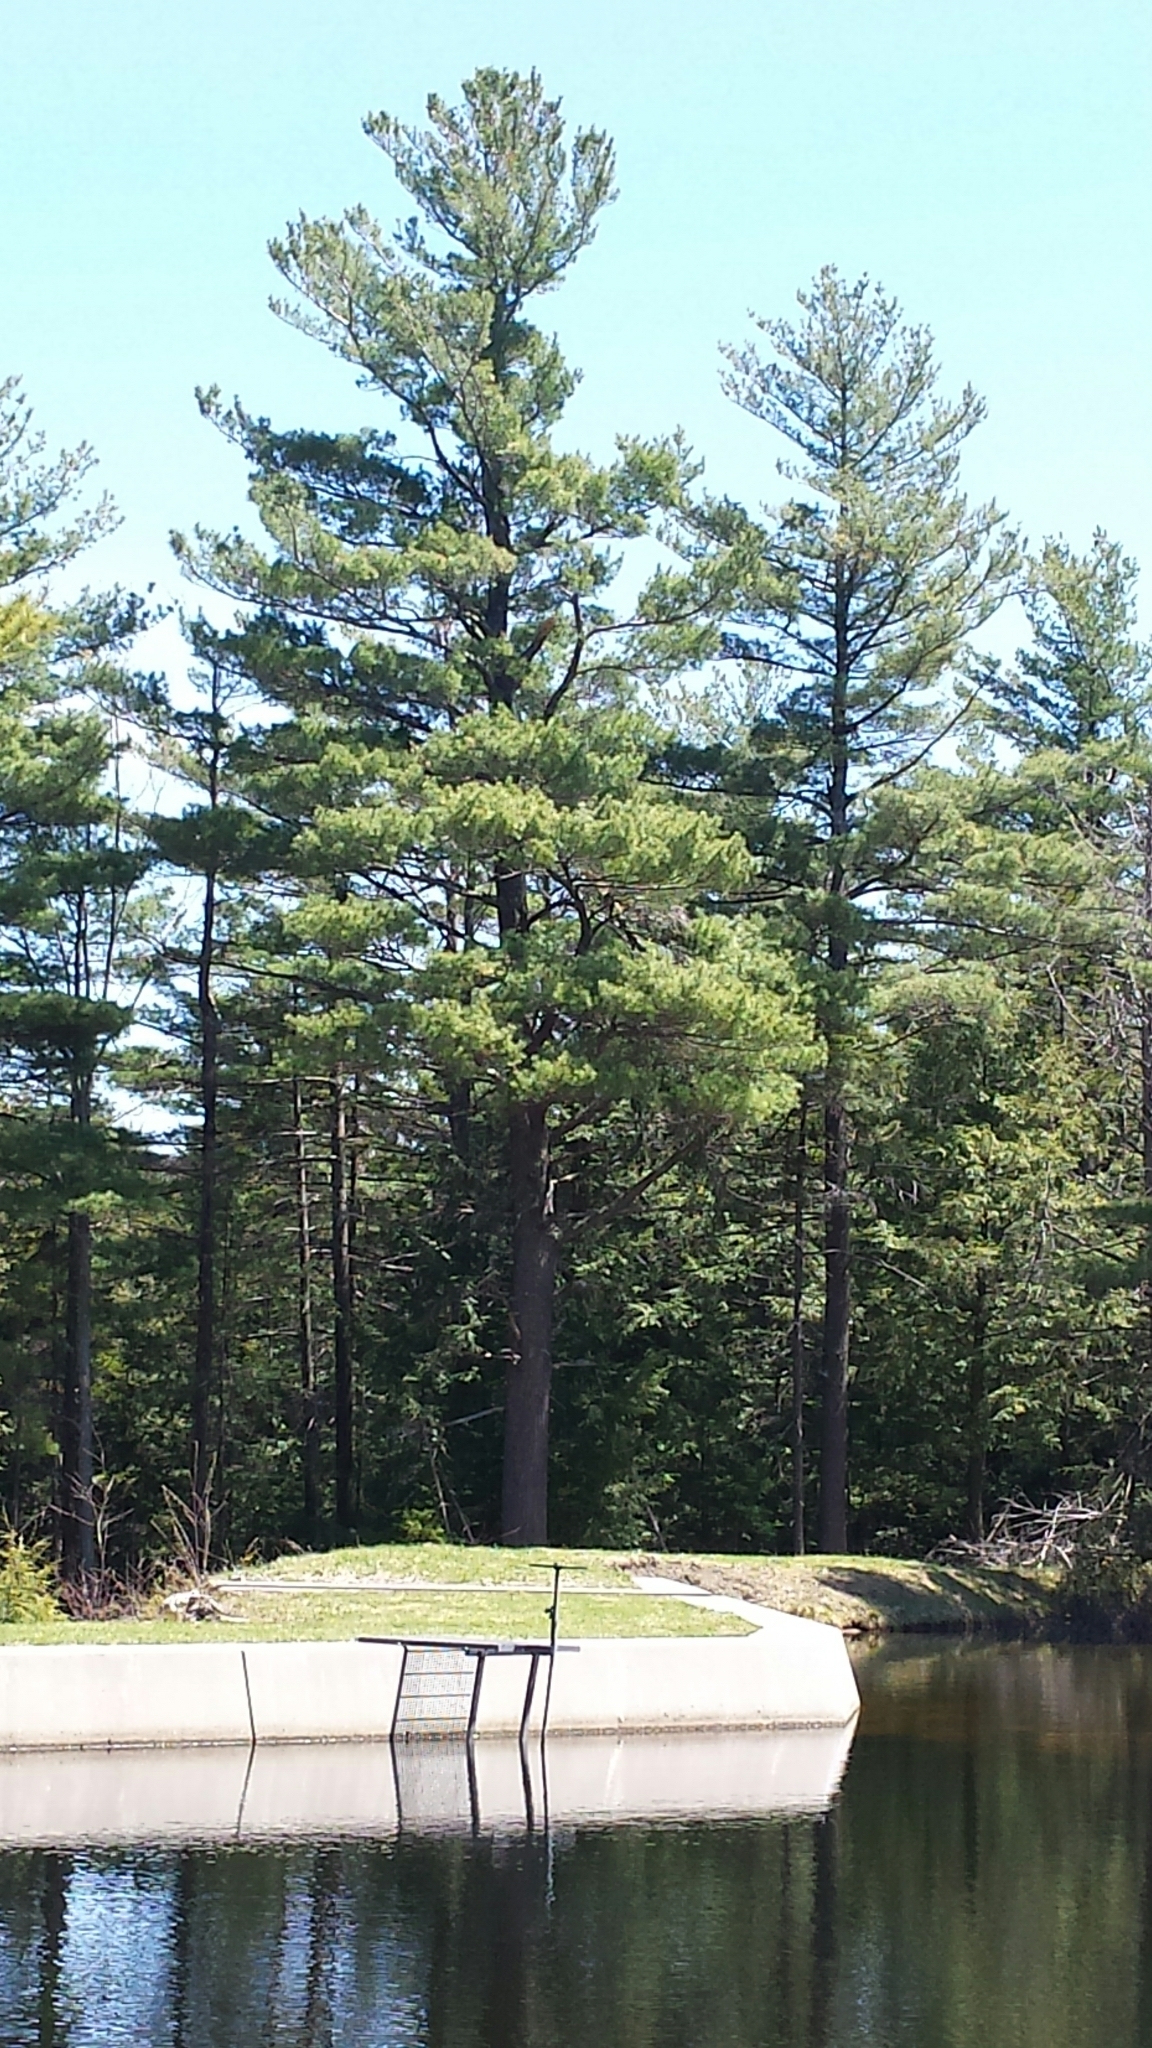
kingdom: Plantae
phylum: Tracheophyta
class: Pinopsida
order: Pinales
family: Pinaceae
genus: Pinus
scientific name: Pinus strobus
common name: Weymouth pine
